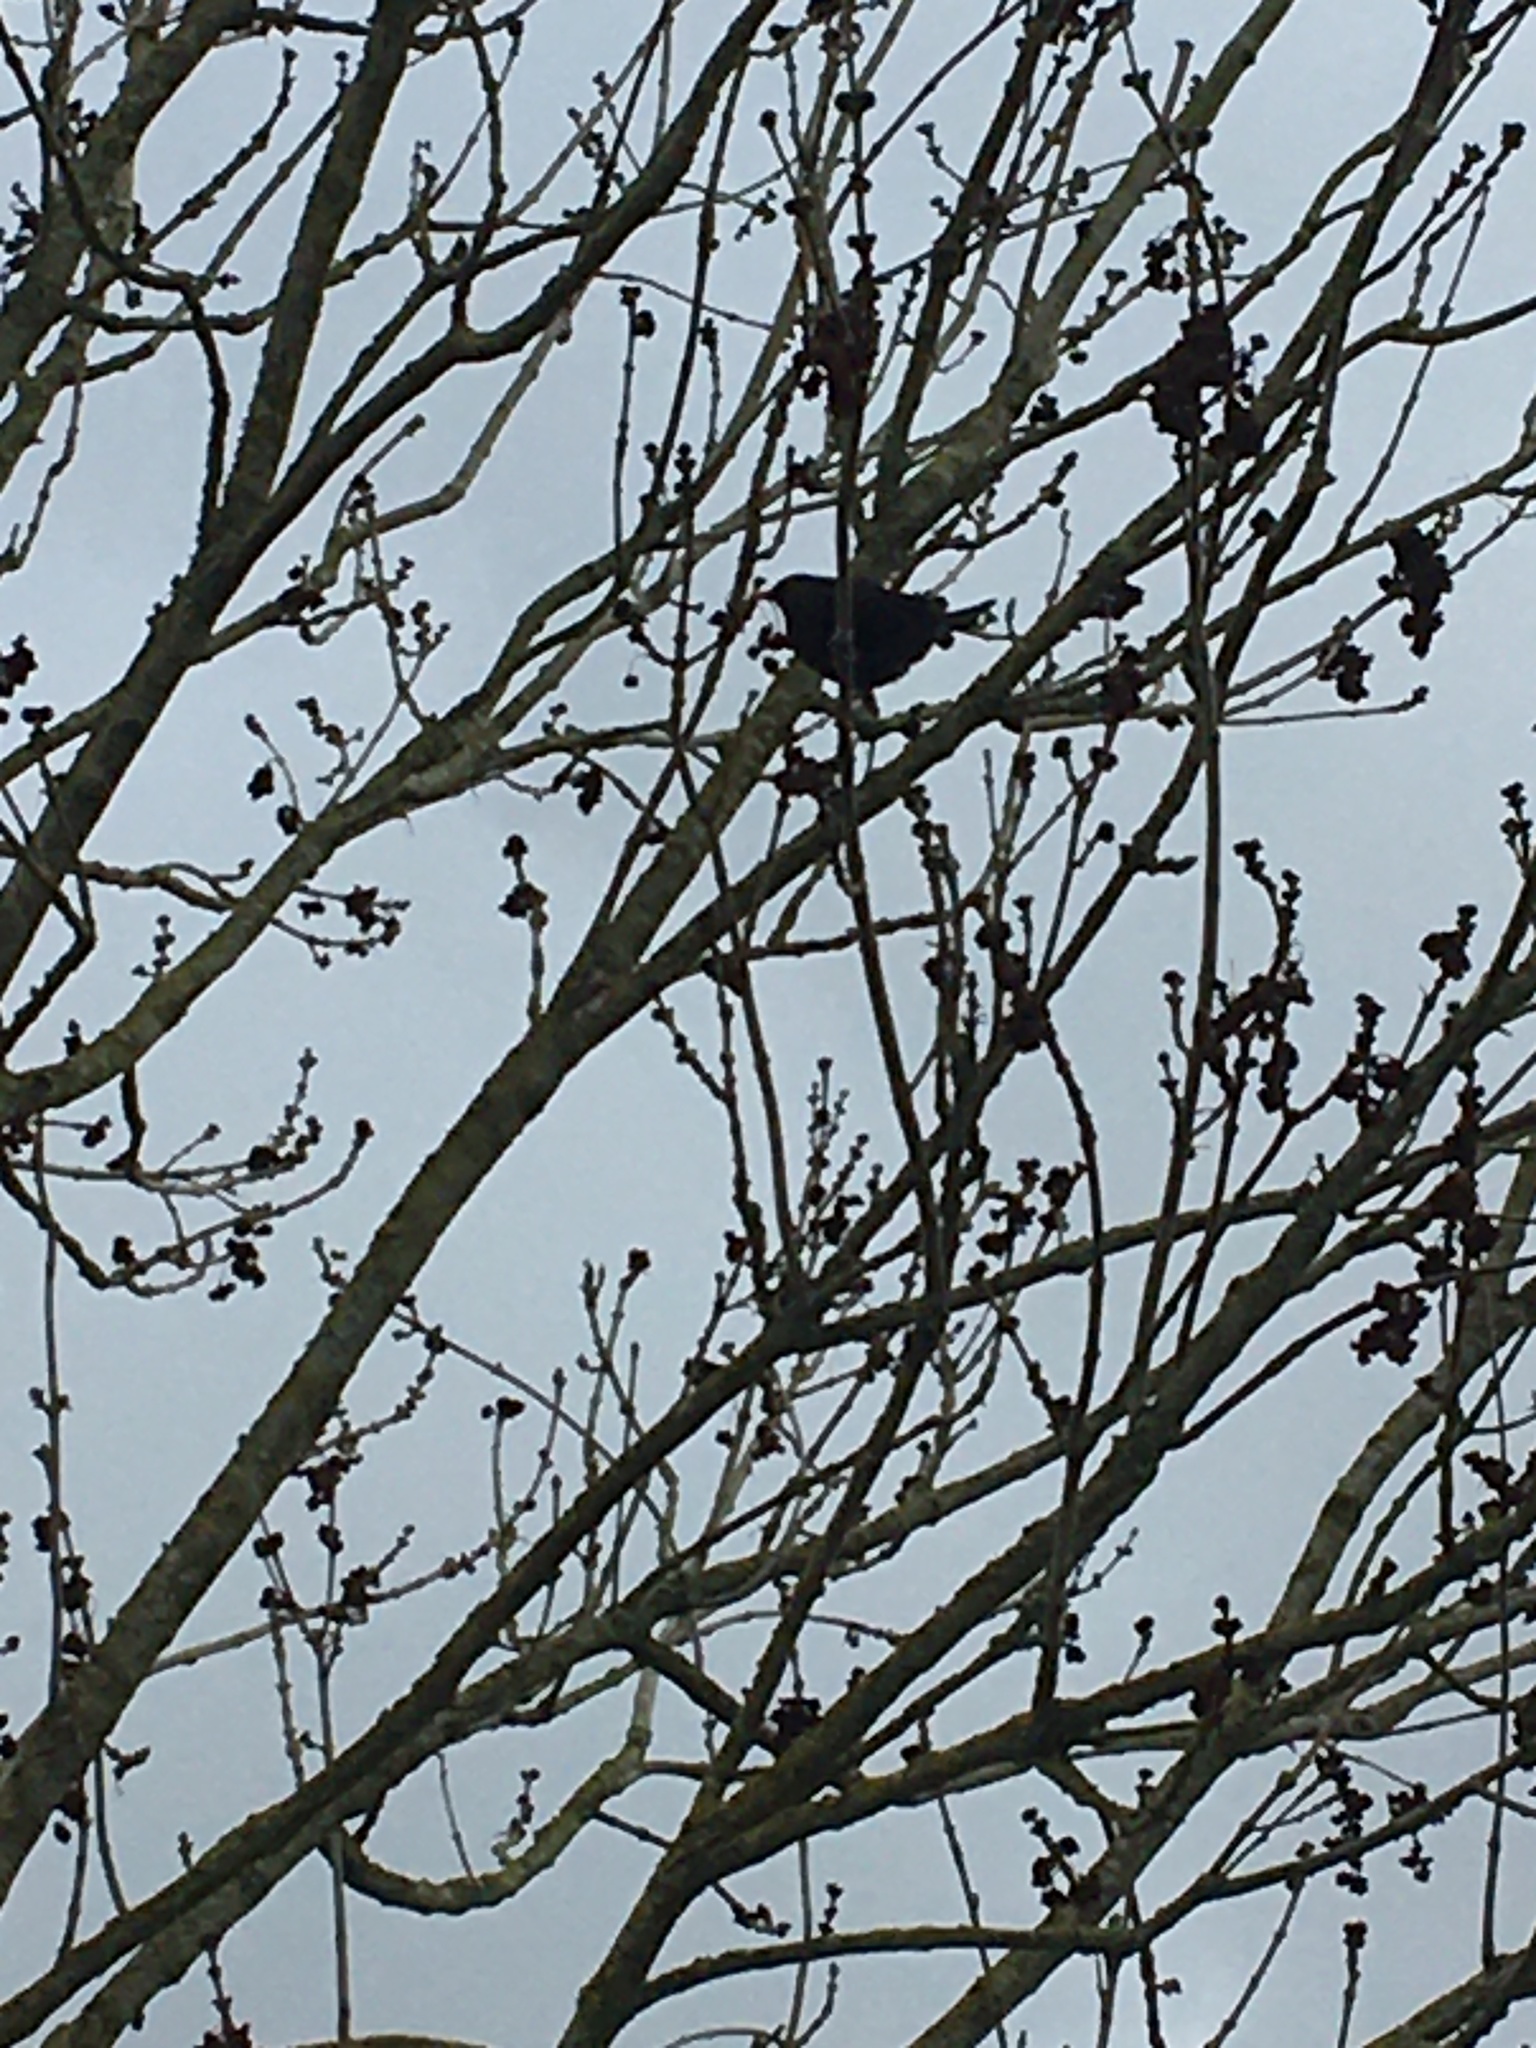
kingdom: Animalia
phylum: Chordata
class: Aves
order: Passeriformes
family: Turdidae
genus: Turdus
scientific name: Turdus merula
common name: Common blackbird
